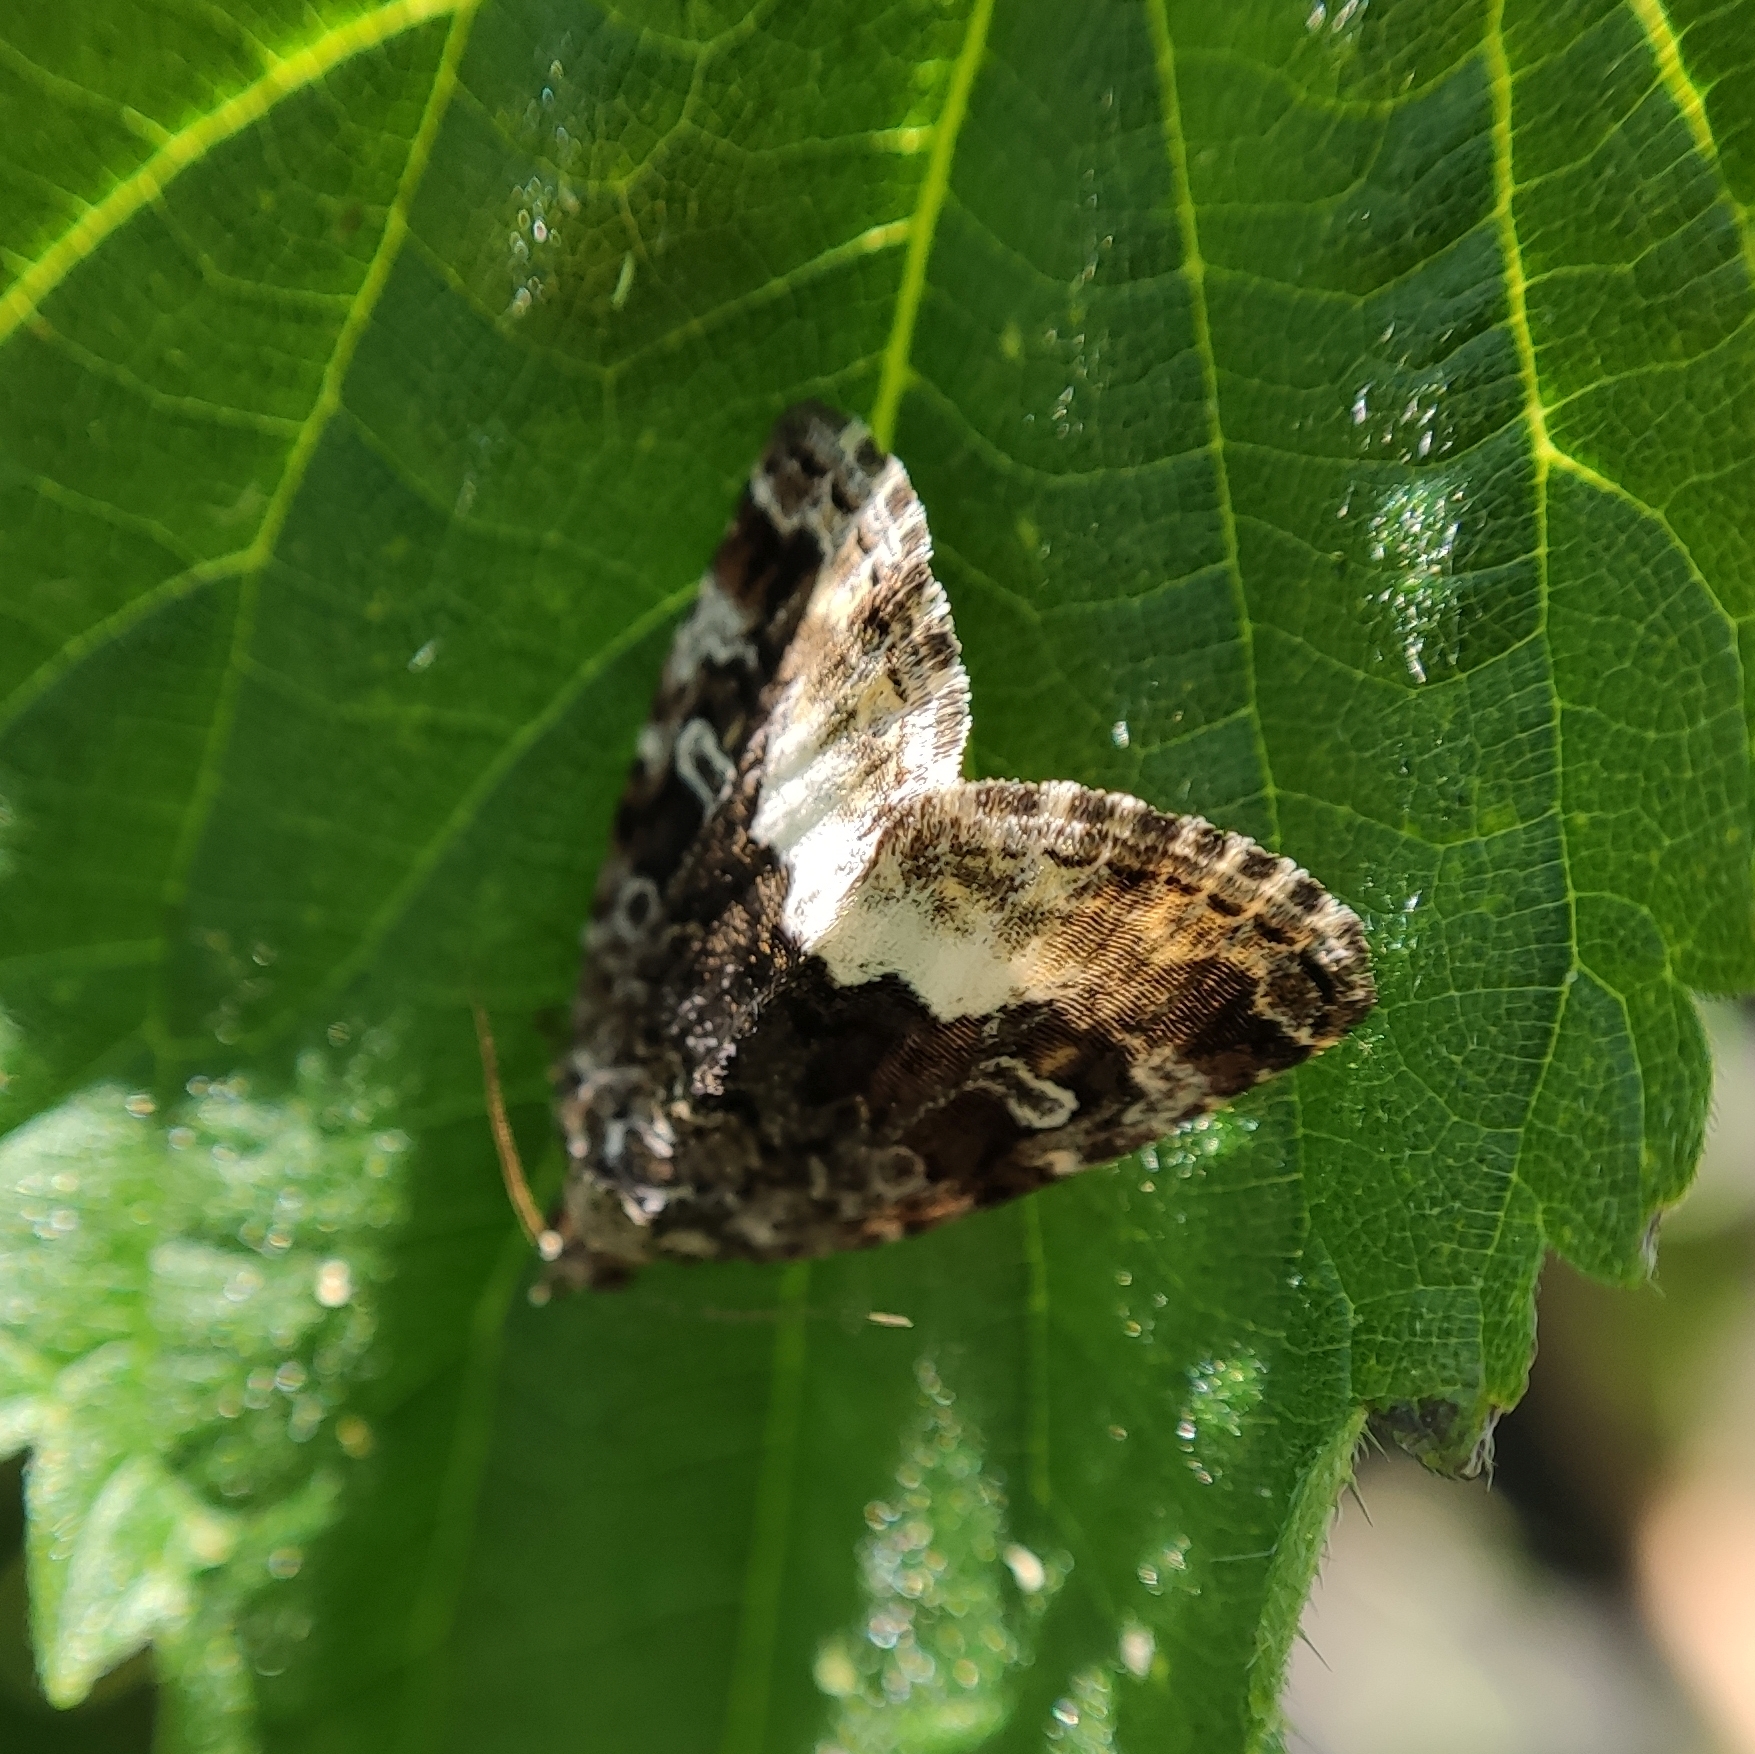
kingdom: Animalia
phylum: Arthropoda
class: Insecta
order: Lepidoptera
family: Noctuidae
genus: Deltote
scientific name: Deltote pygarga
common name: Marbled white spot
